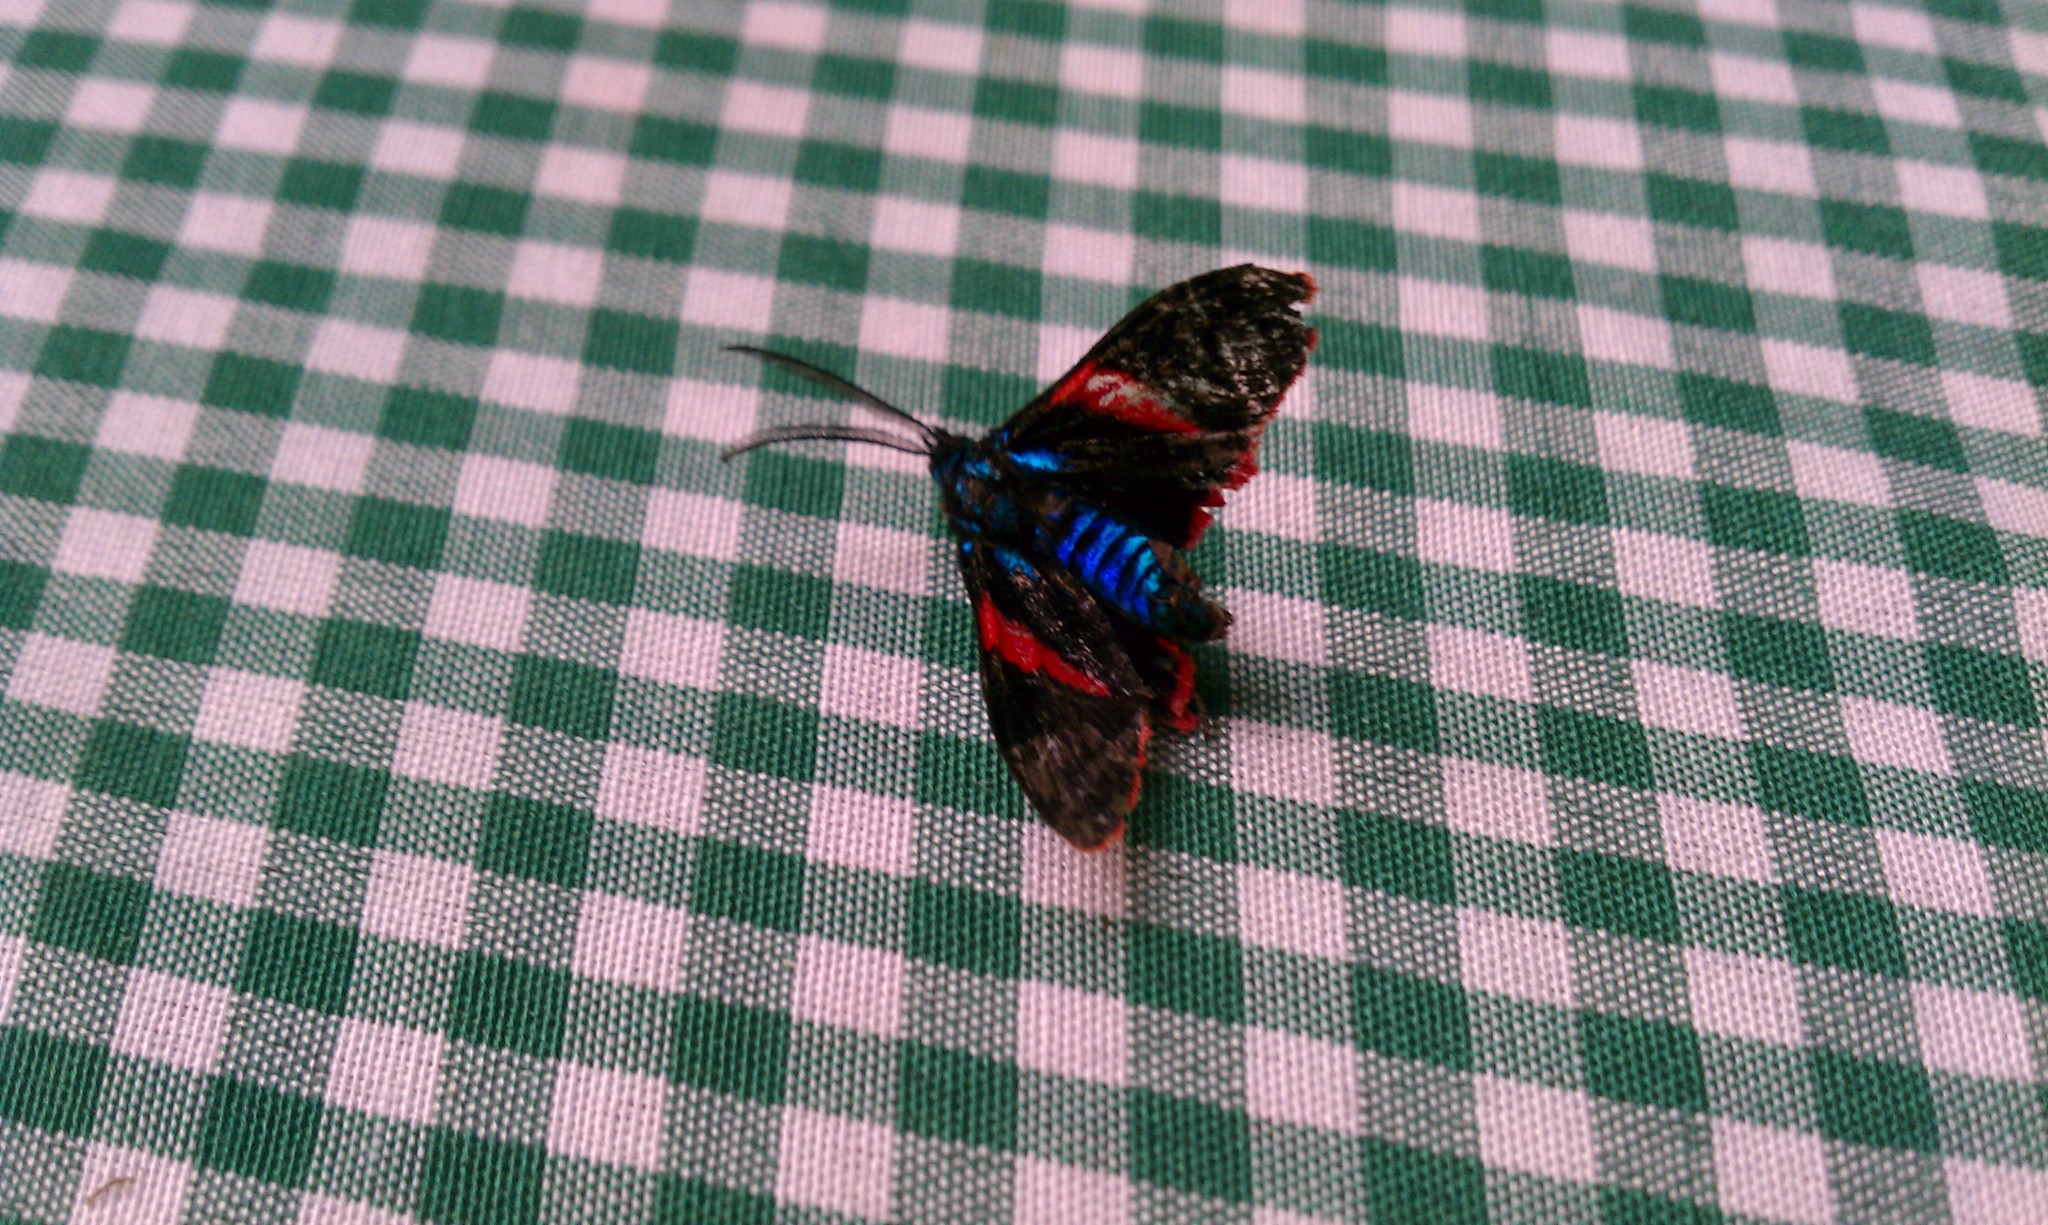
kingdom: Animalia
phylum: Arthropoda
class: Insecta
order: Lepidoptera
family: Erebidae
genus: Cyanopepla
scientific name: Cyanopepla scintillans
